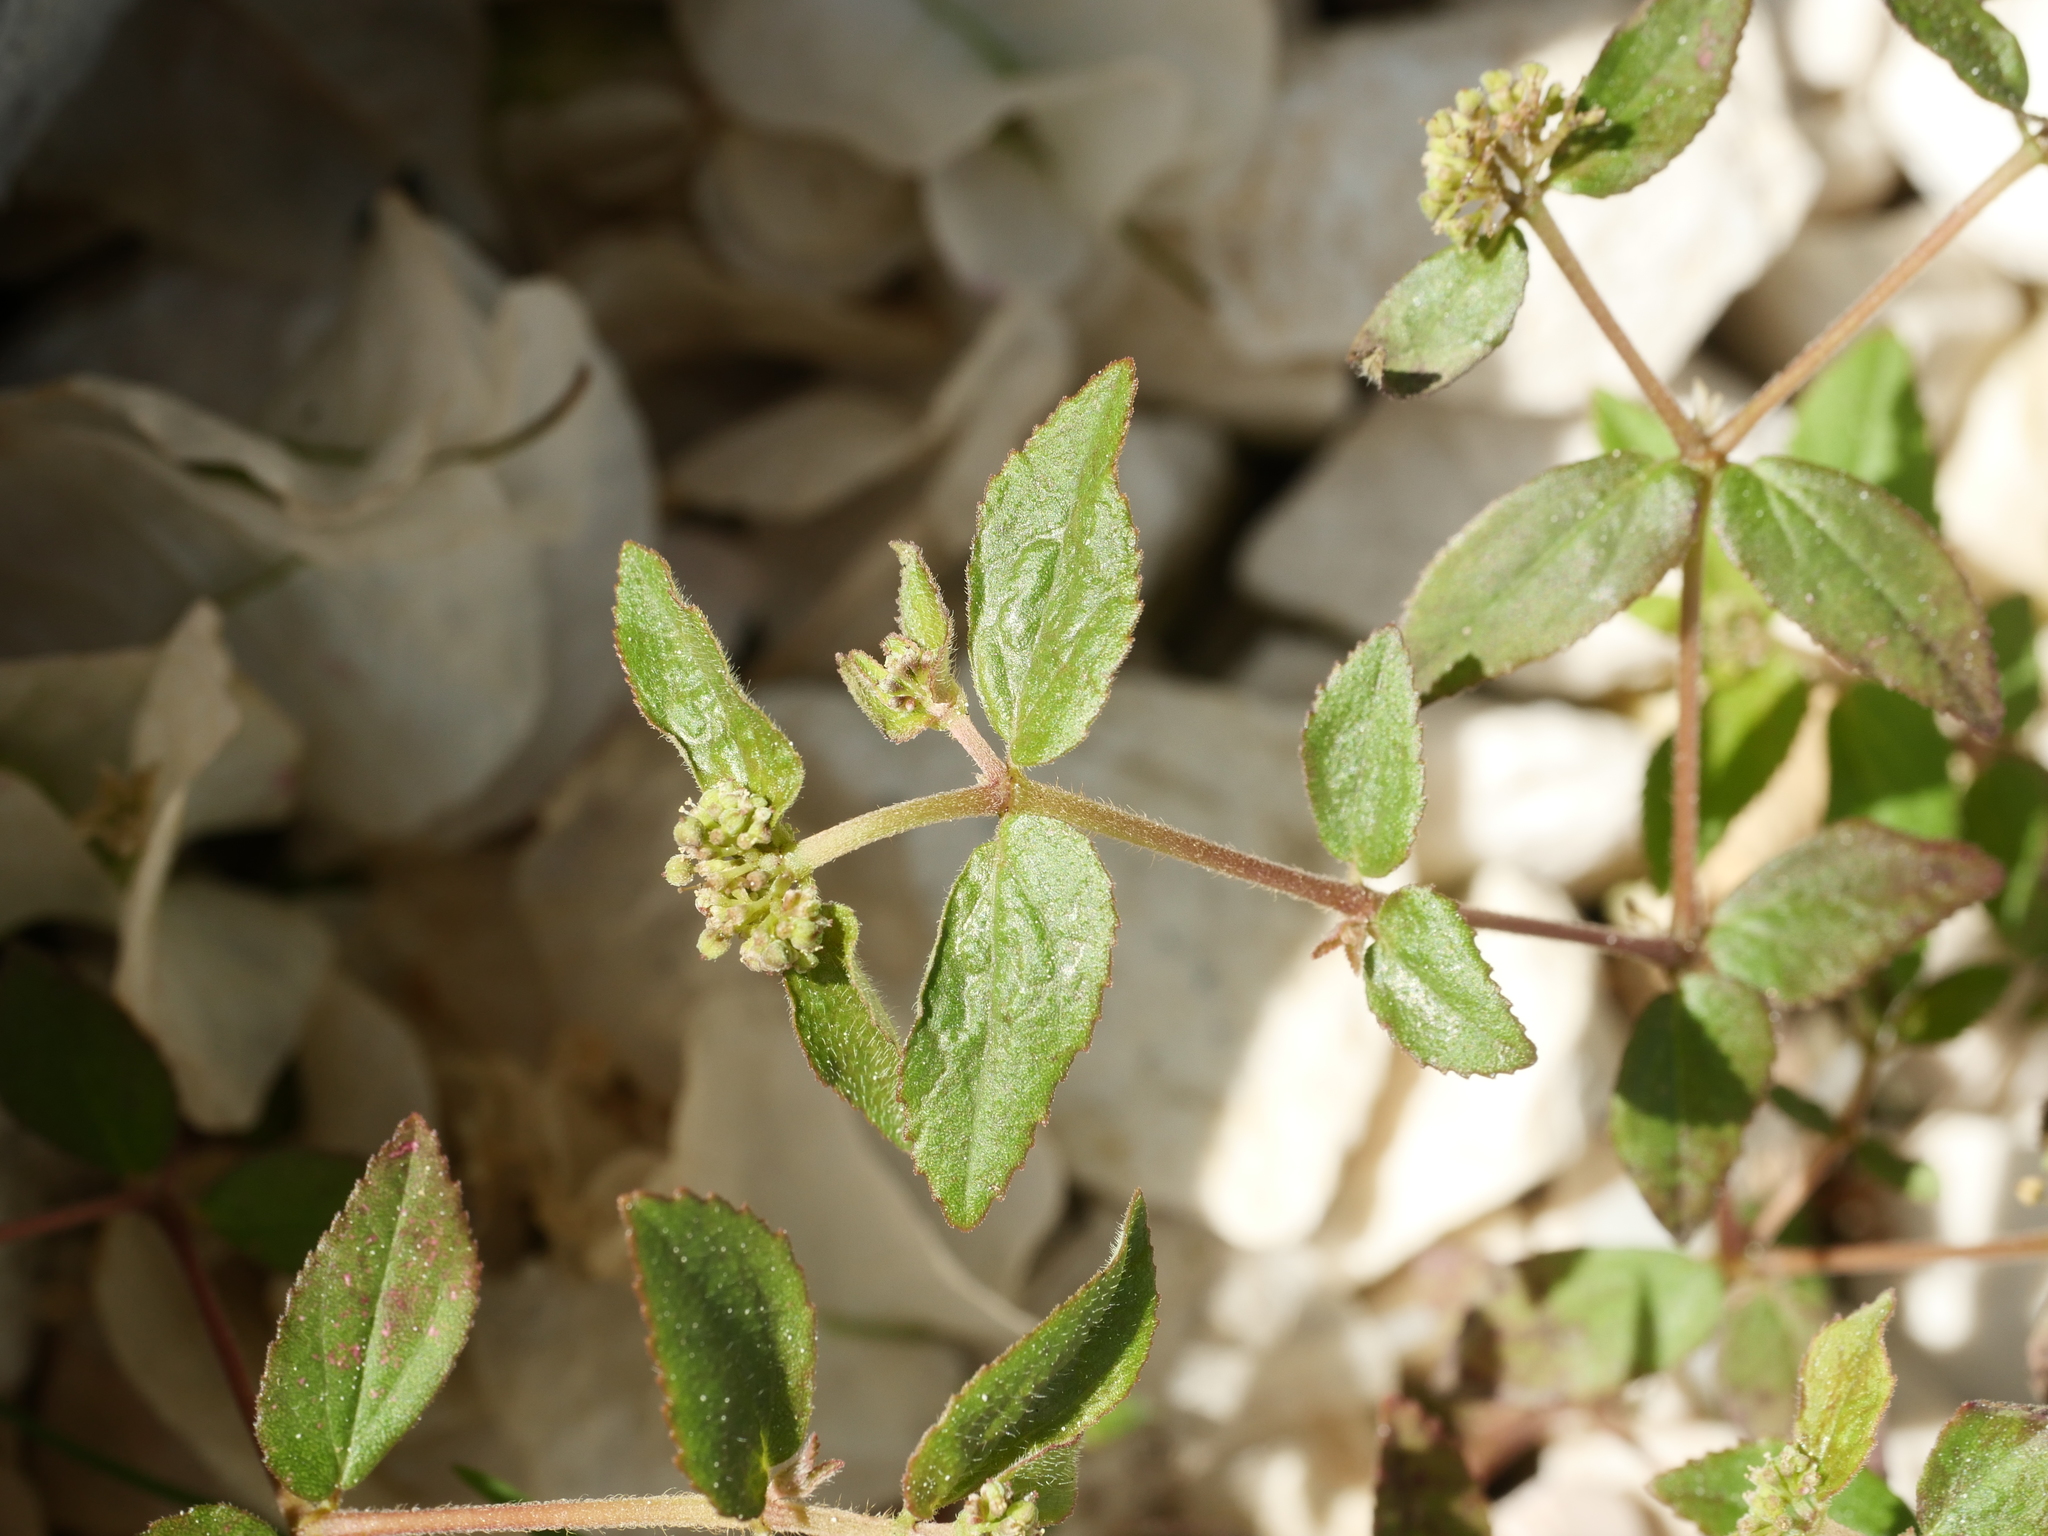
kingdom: Plantae
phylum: Tracheophyta
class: Magnoliopsida
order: Malpighiales
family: Euphorbiaceae
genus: Euphorbia
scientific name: Euphorbia ophthalmica
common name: Florida hammock sandmat
